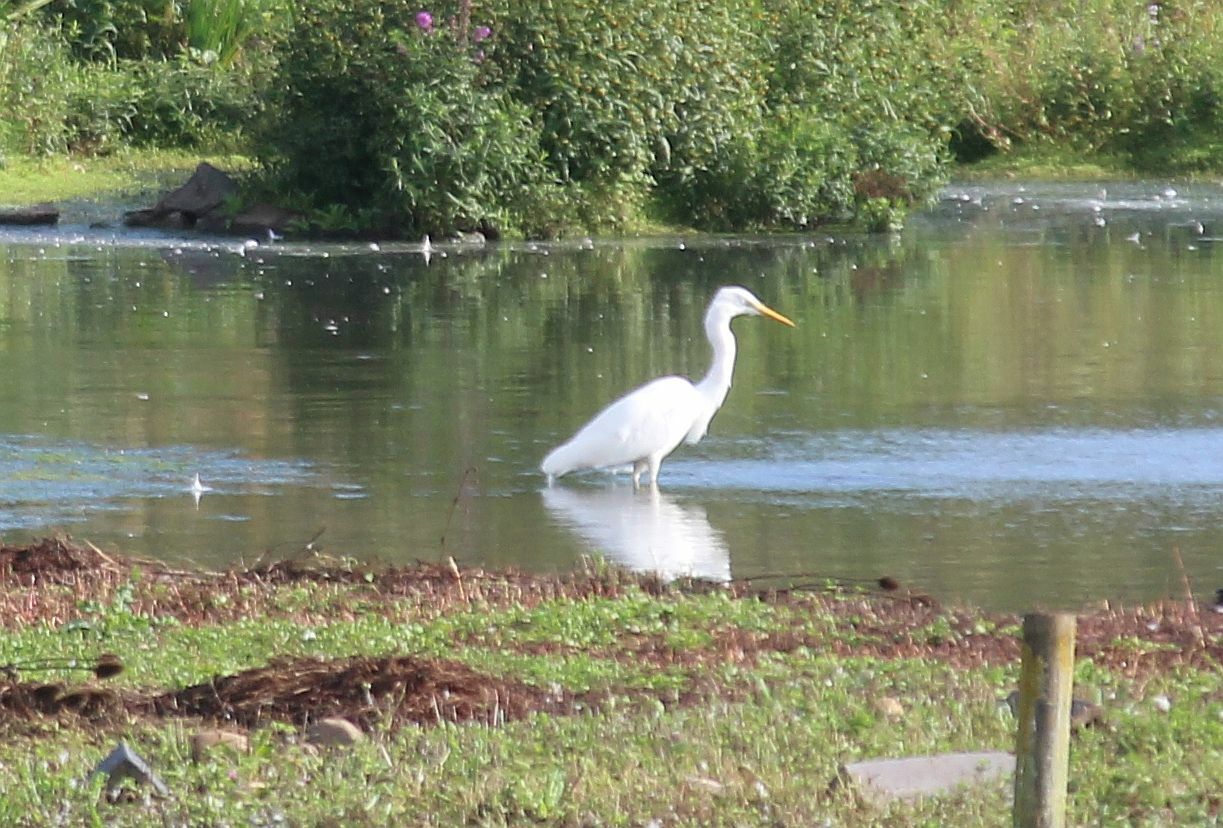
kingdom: Animalia
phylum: Chordata
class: Aves
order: Pelecaniformes
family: Ardeidae
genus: Ardea
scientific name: Ardea alba
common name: Great egret
